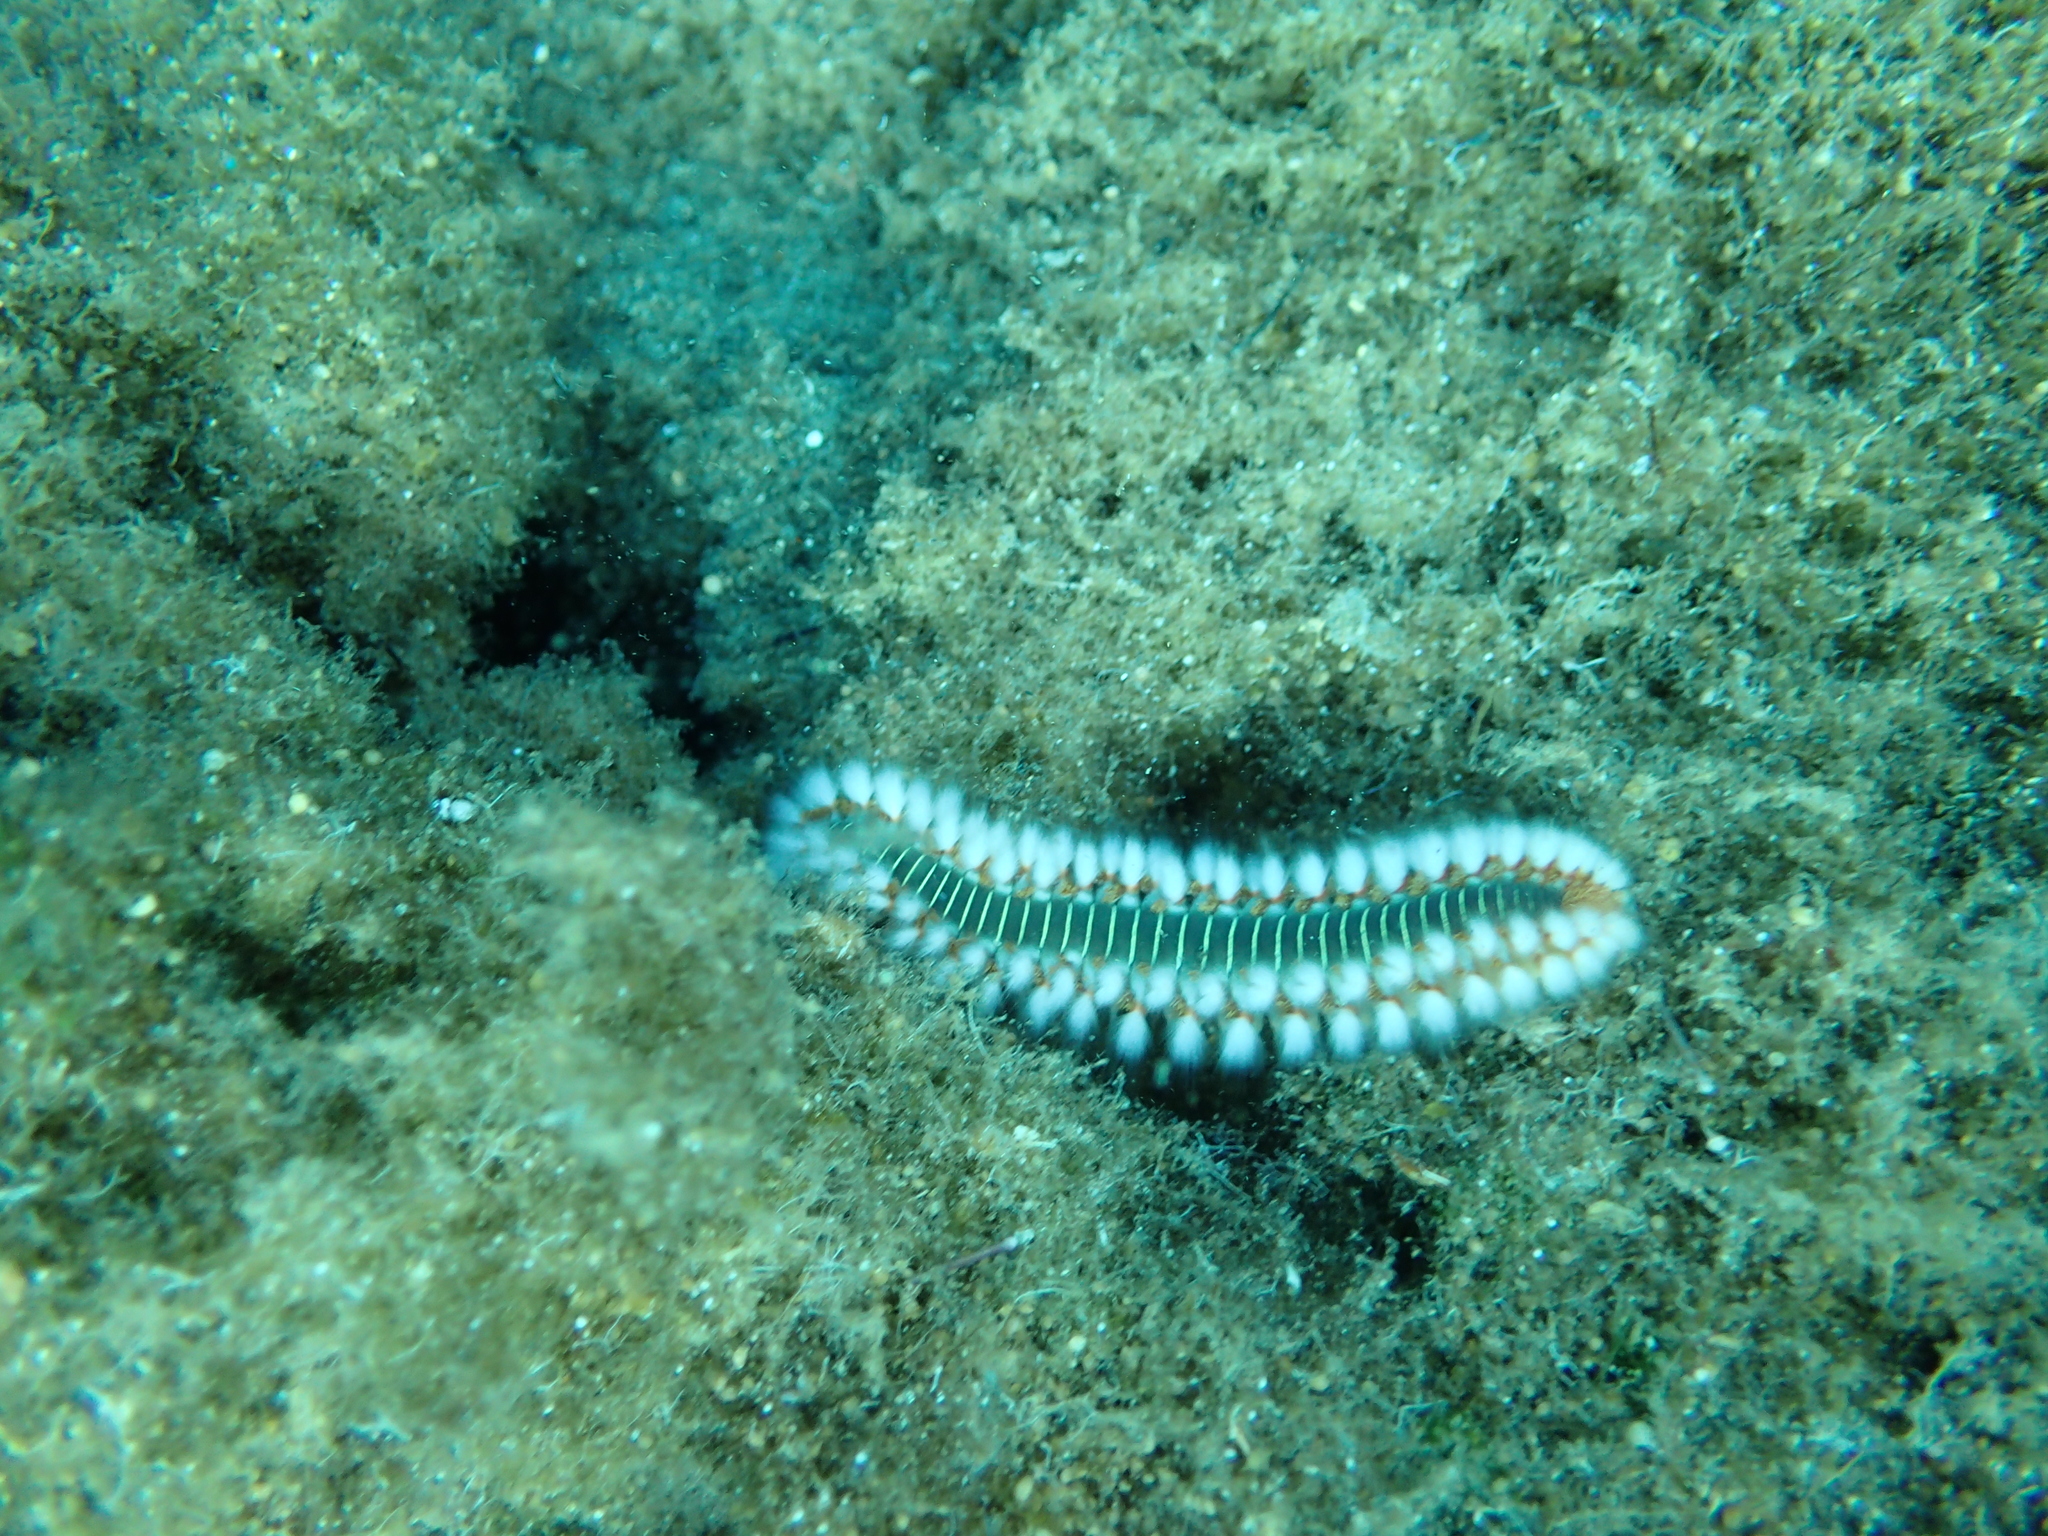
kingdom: Animalia
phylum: Annelida
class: Polychaeta
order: Amphinomida
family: Amphinomidae
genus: Hermodice
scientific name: Hermodice carunculata
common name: Bearded fireworm
